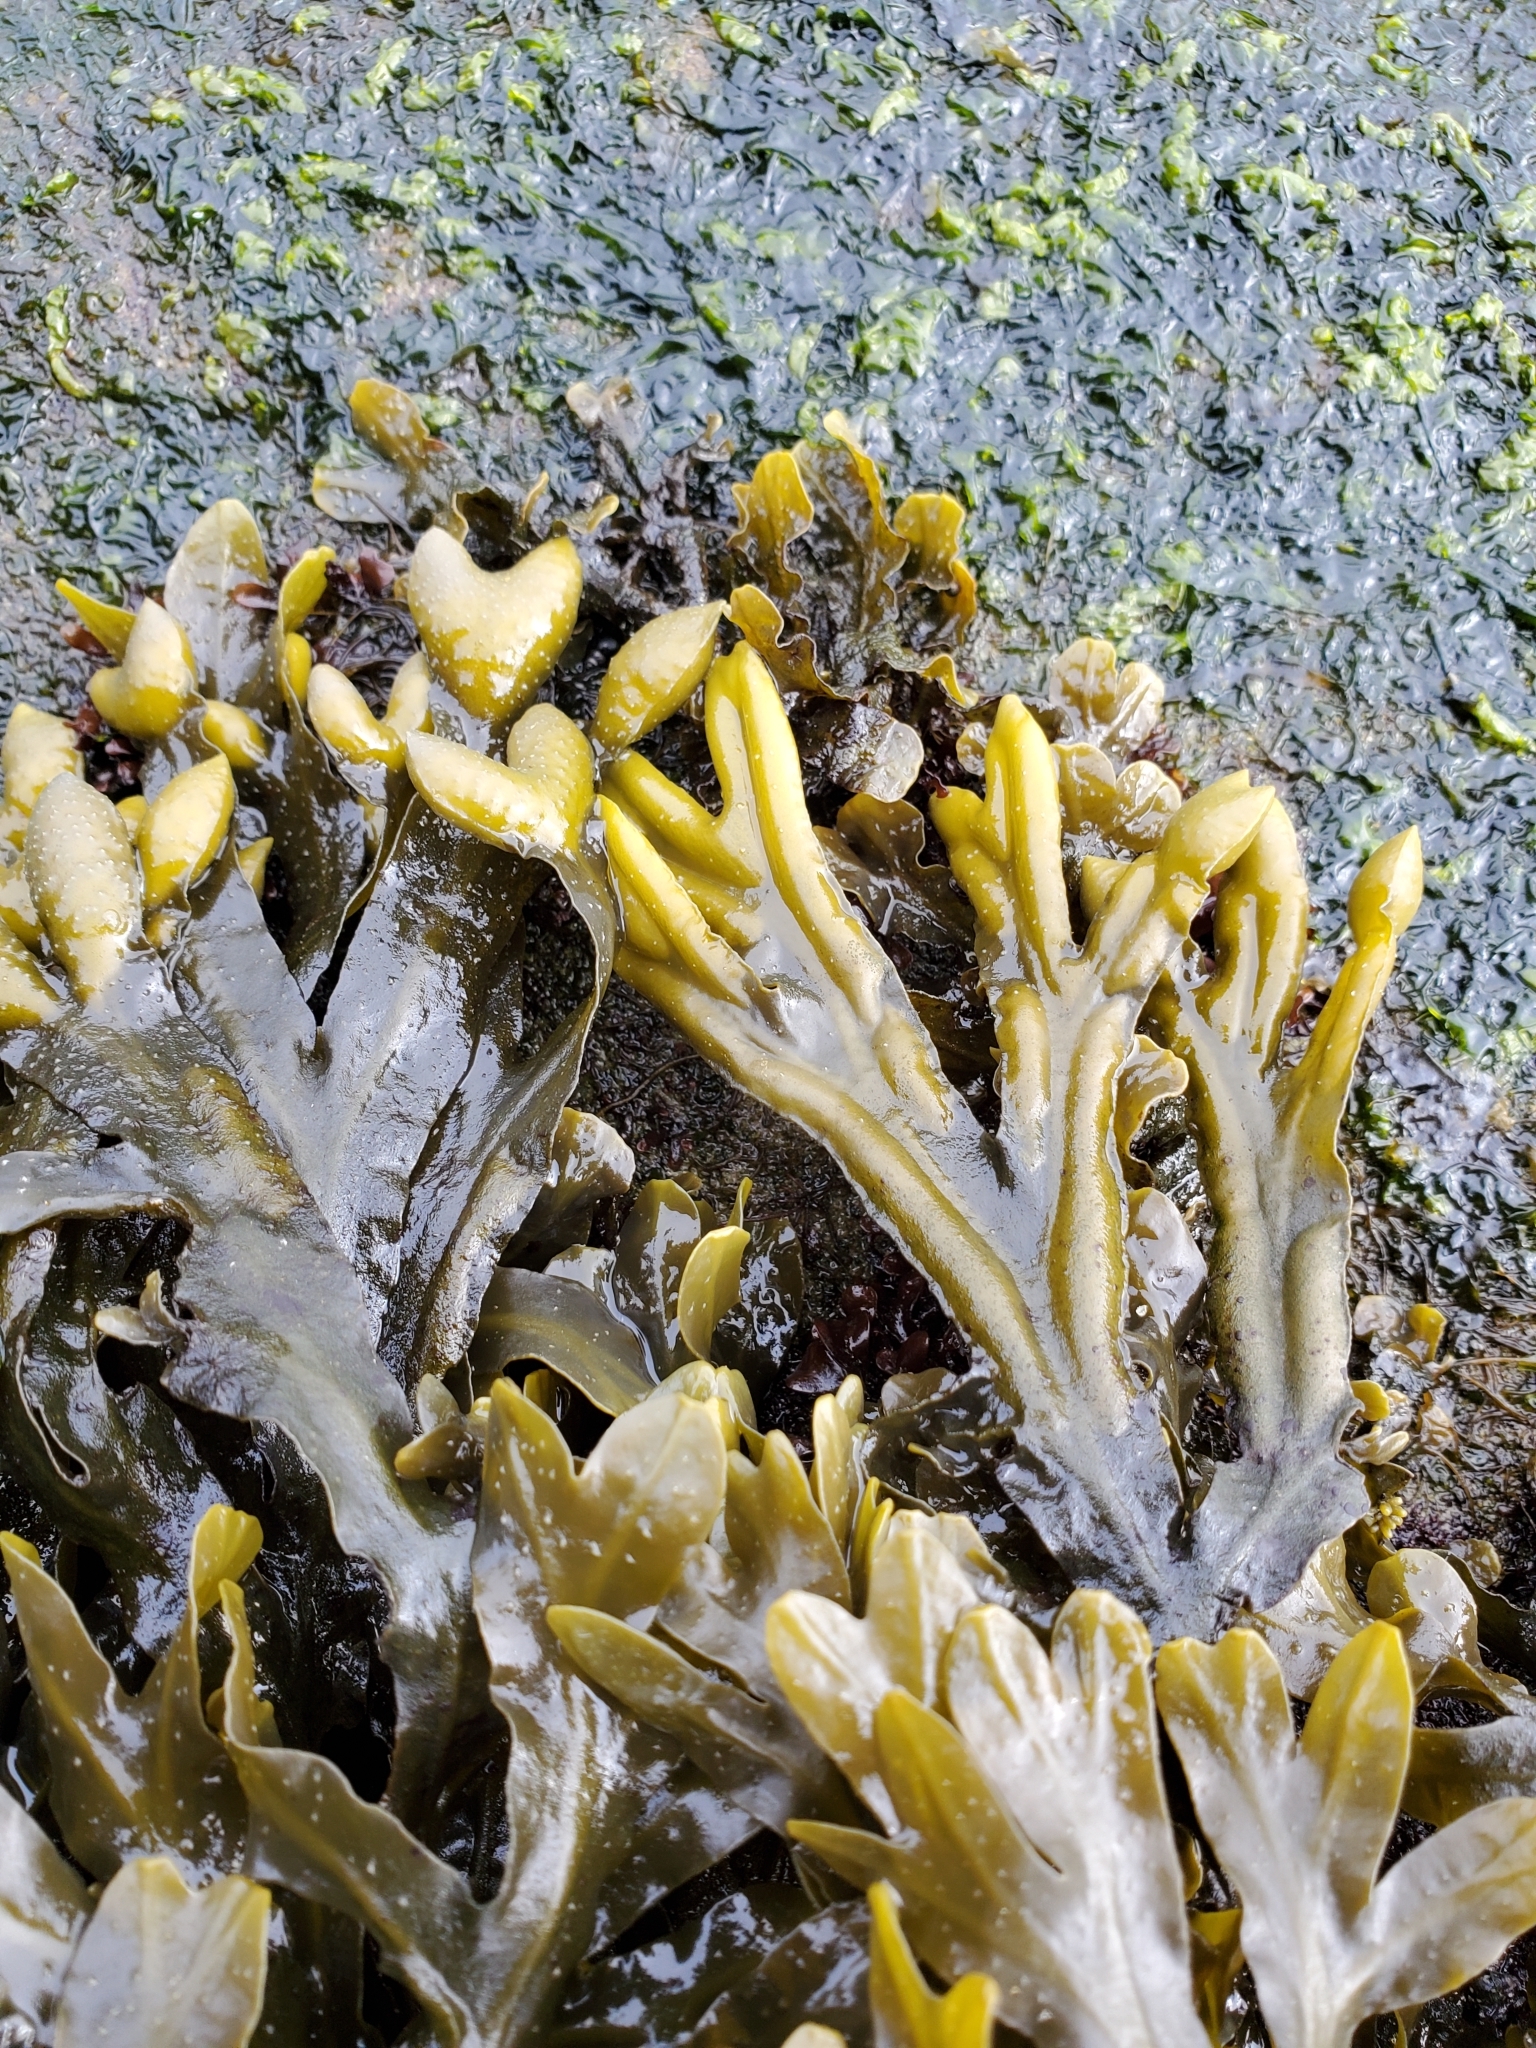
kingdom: Chromista
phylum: Ochrophyta
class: Phaeophyceae
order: Fucales
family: Fucaceae
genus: Fucus
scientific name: Fucus distichus
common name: Rockweed
